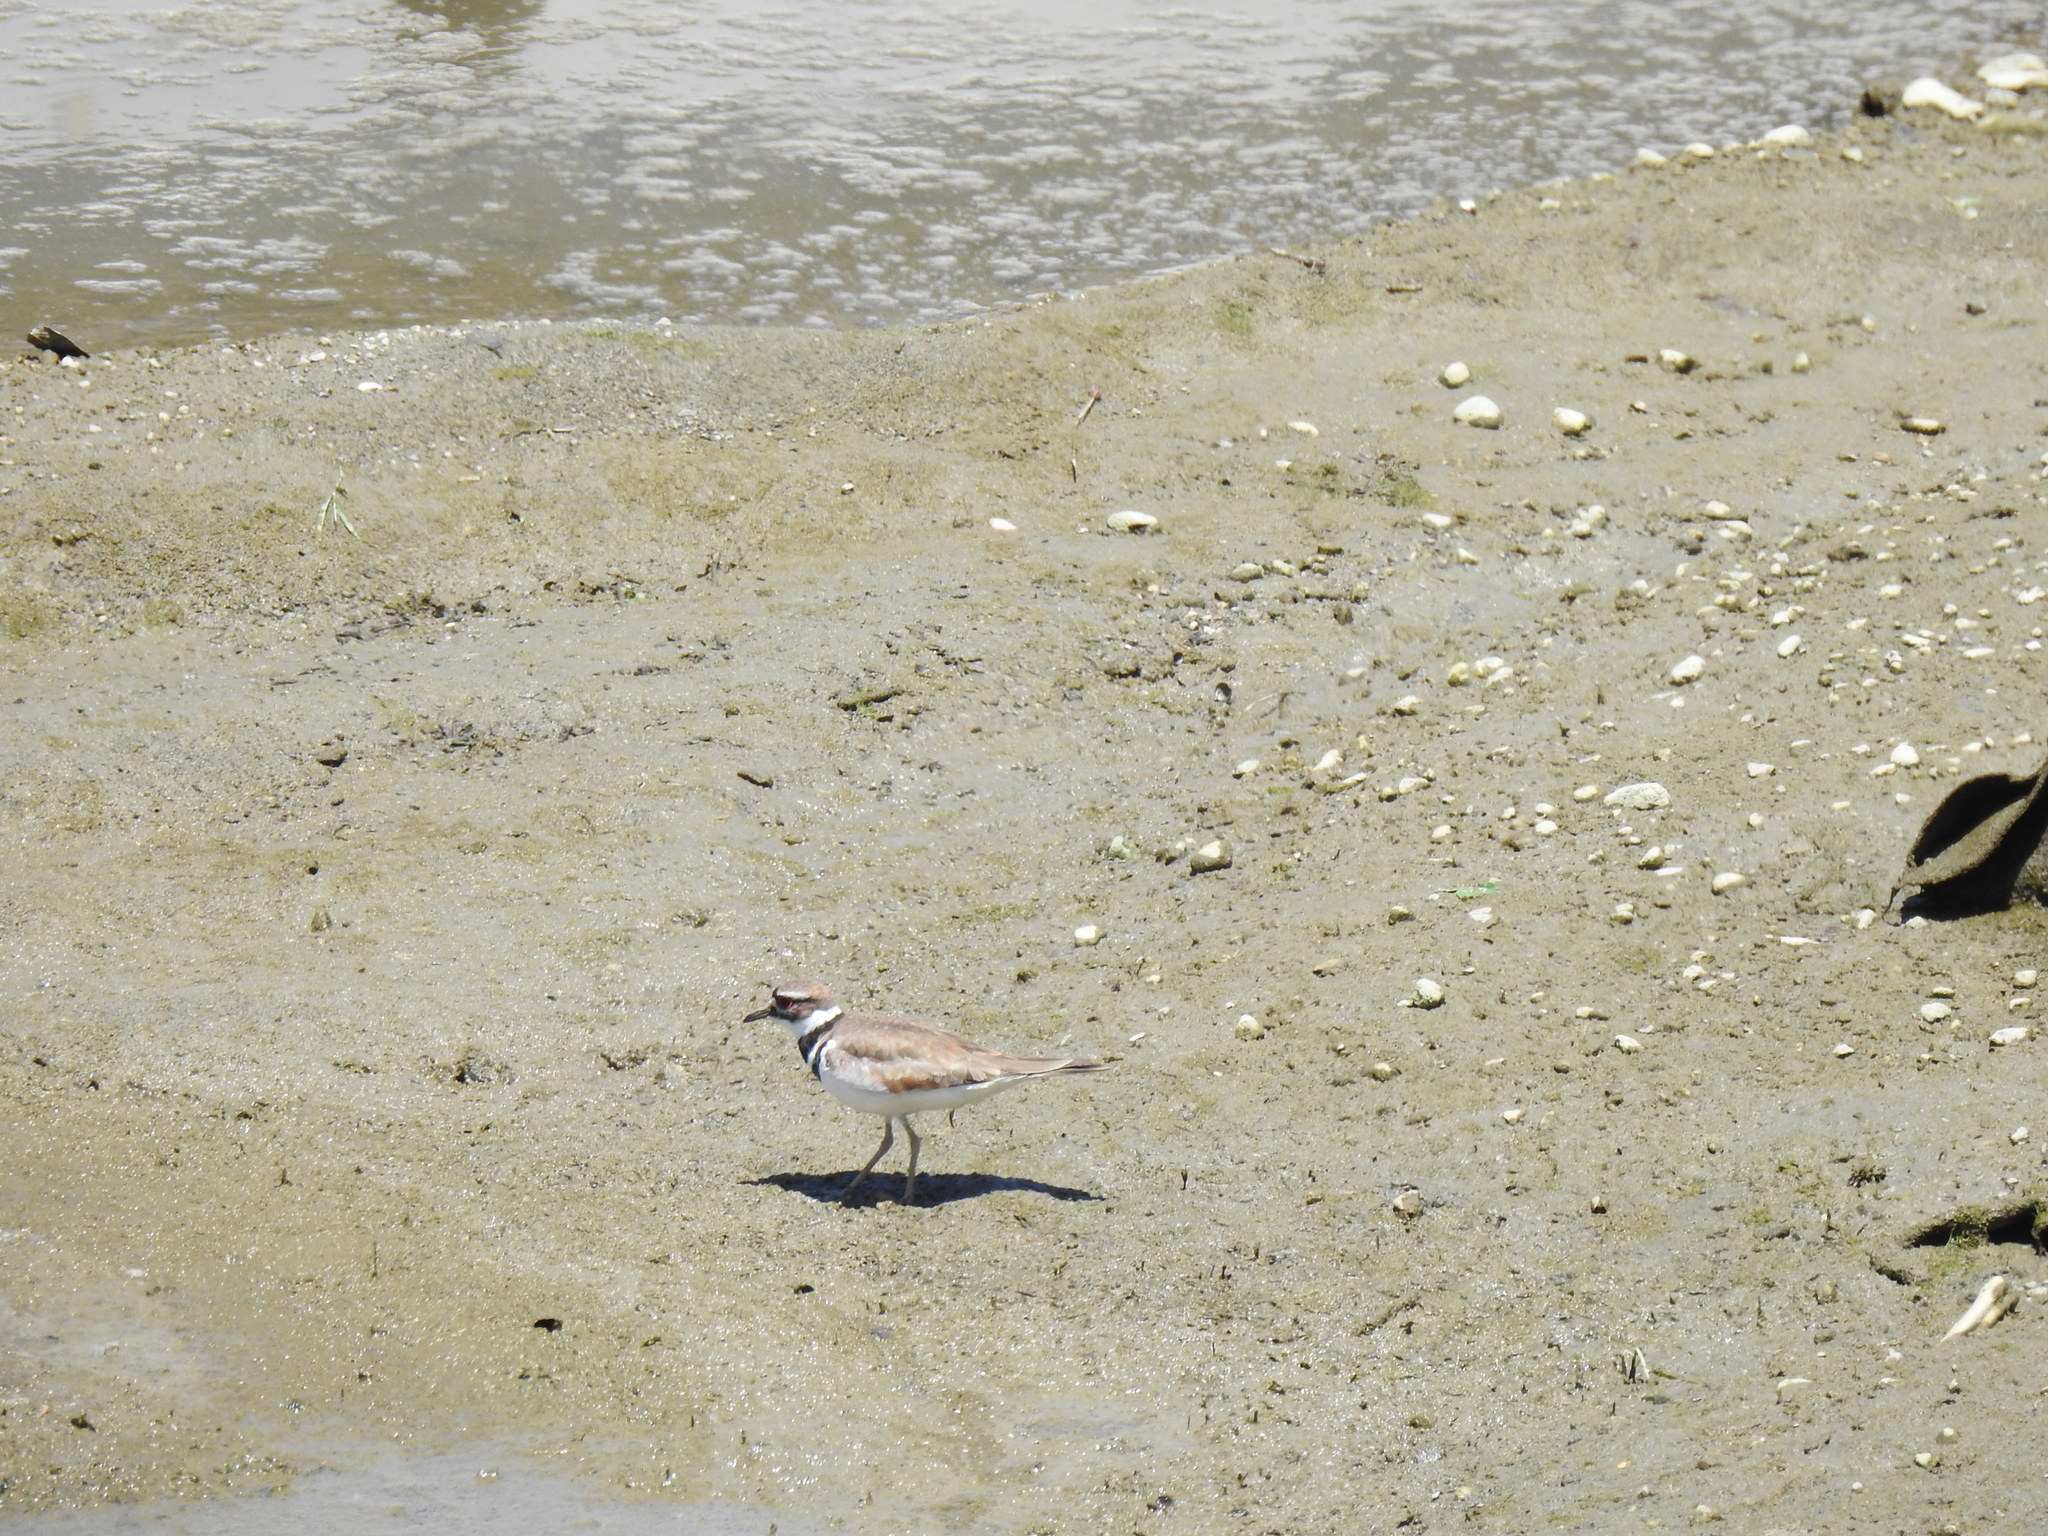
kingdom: Animalia
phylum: Chordata
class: Aves
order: Charadriiformes
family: Charadriidae
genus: Charadrius
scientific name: Charadrius vociferus
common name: Killdeer
